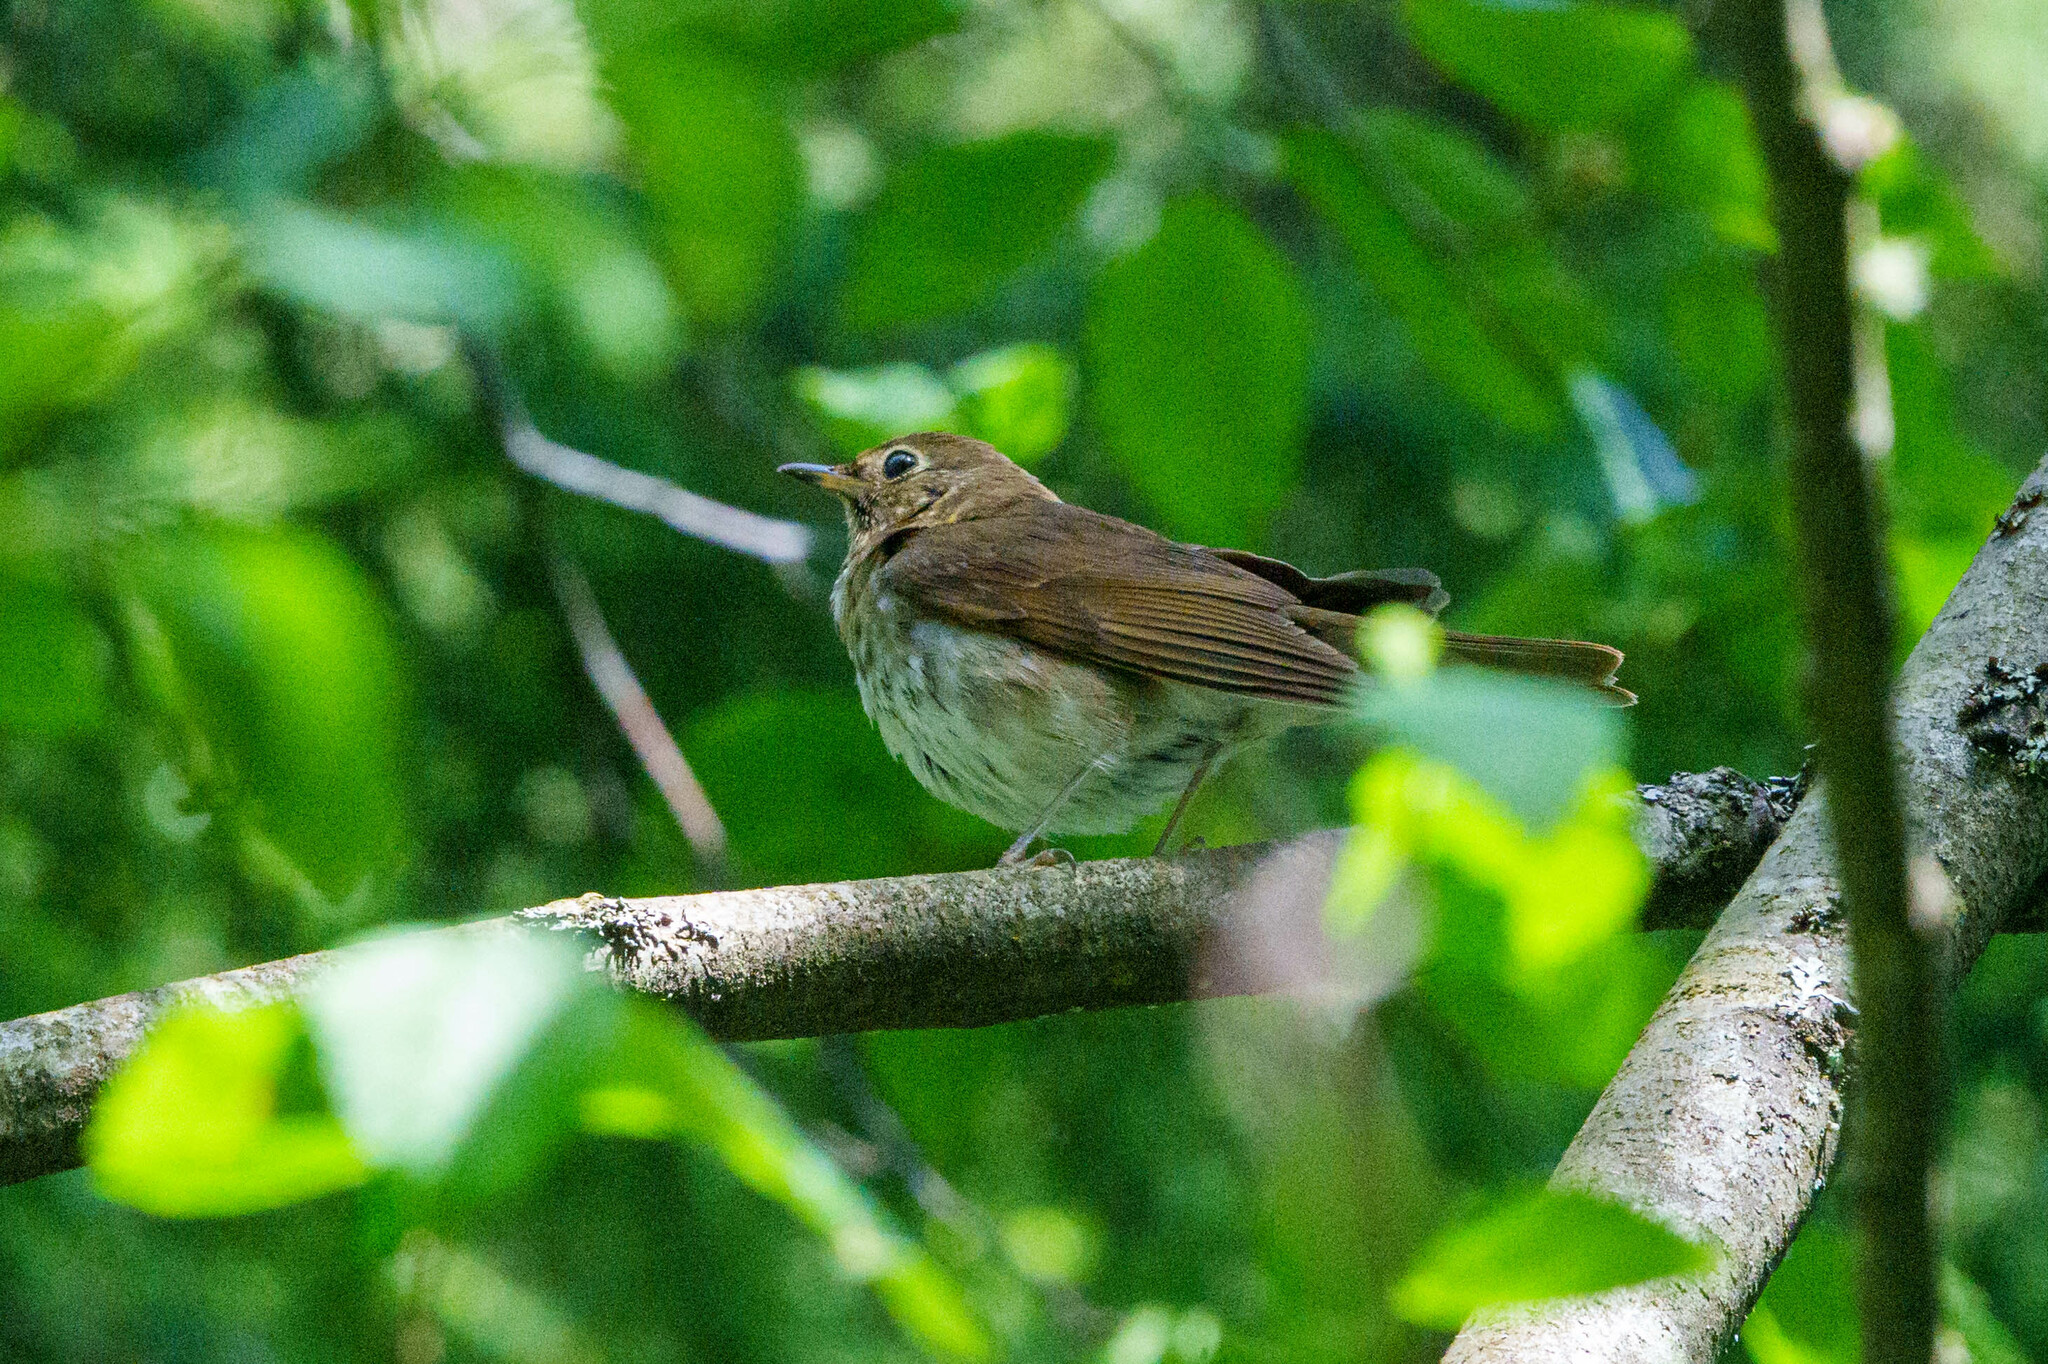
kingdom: Animalia
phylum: Chordata
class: Aves
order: Passeriformes
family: Turdidae
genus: Catharus
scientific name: Catharus ustulatus
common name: Swainson's thrush
